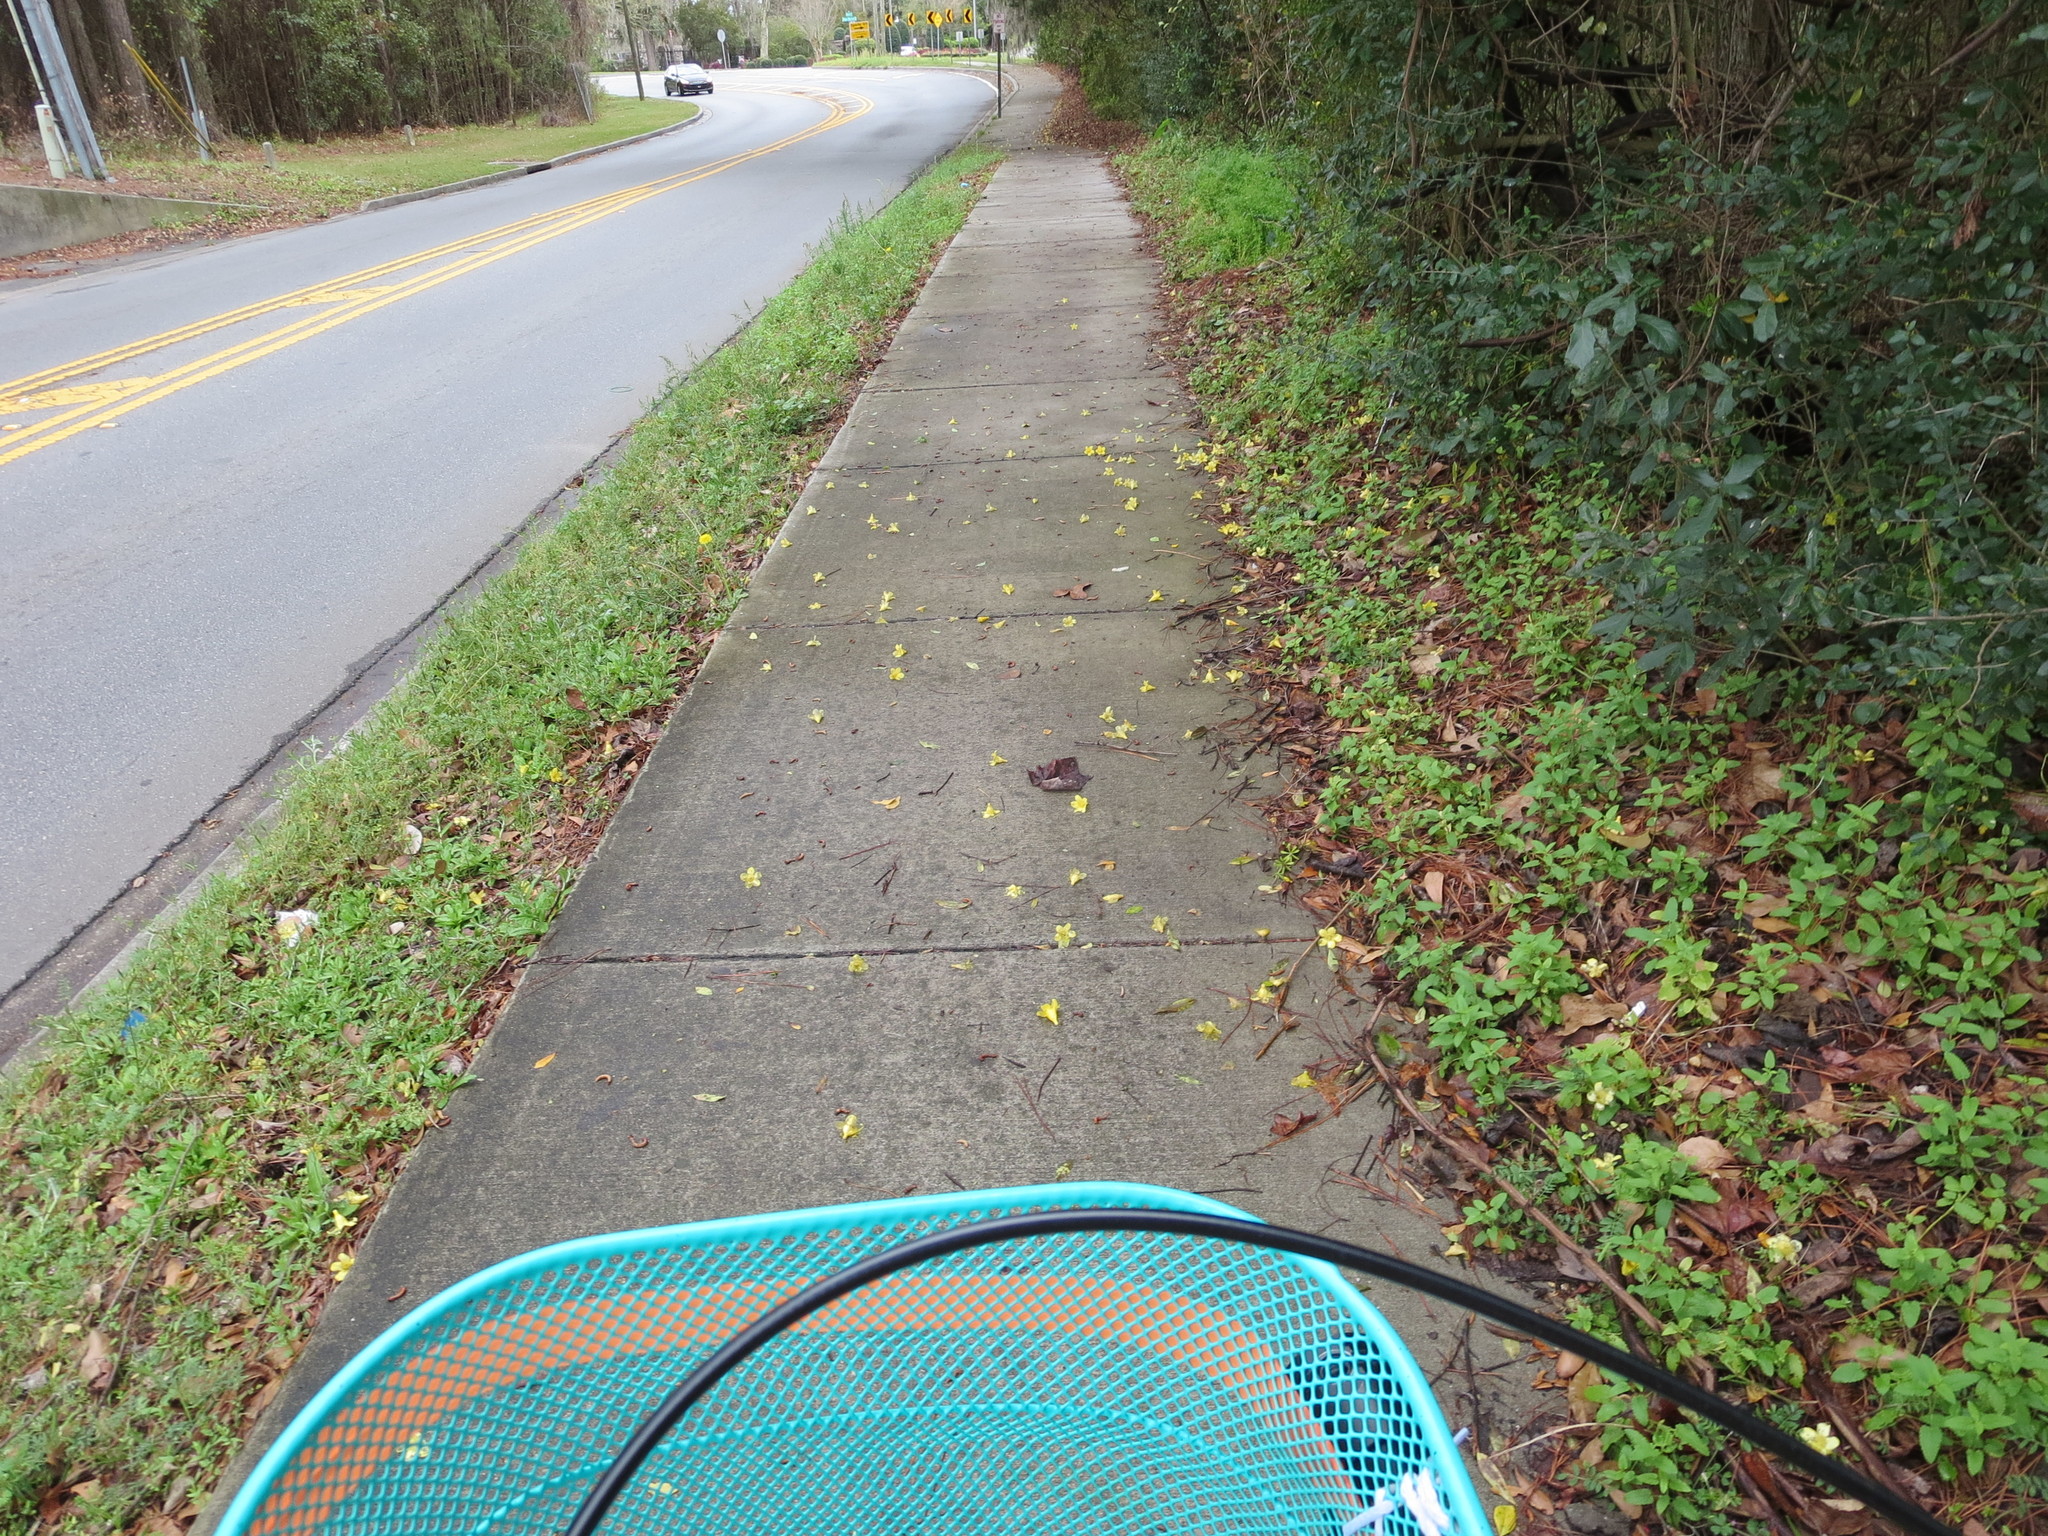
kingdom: Plantae
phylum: Tracheophyta
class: Magnoliopsida
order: Gentianales
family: Gelsemiaceae
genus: Gelsemium
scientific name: Gelsemium sempervirens
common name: Carolina-jasmine
